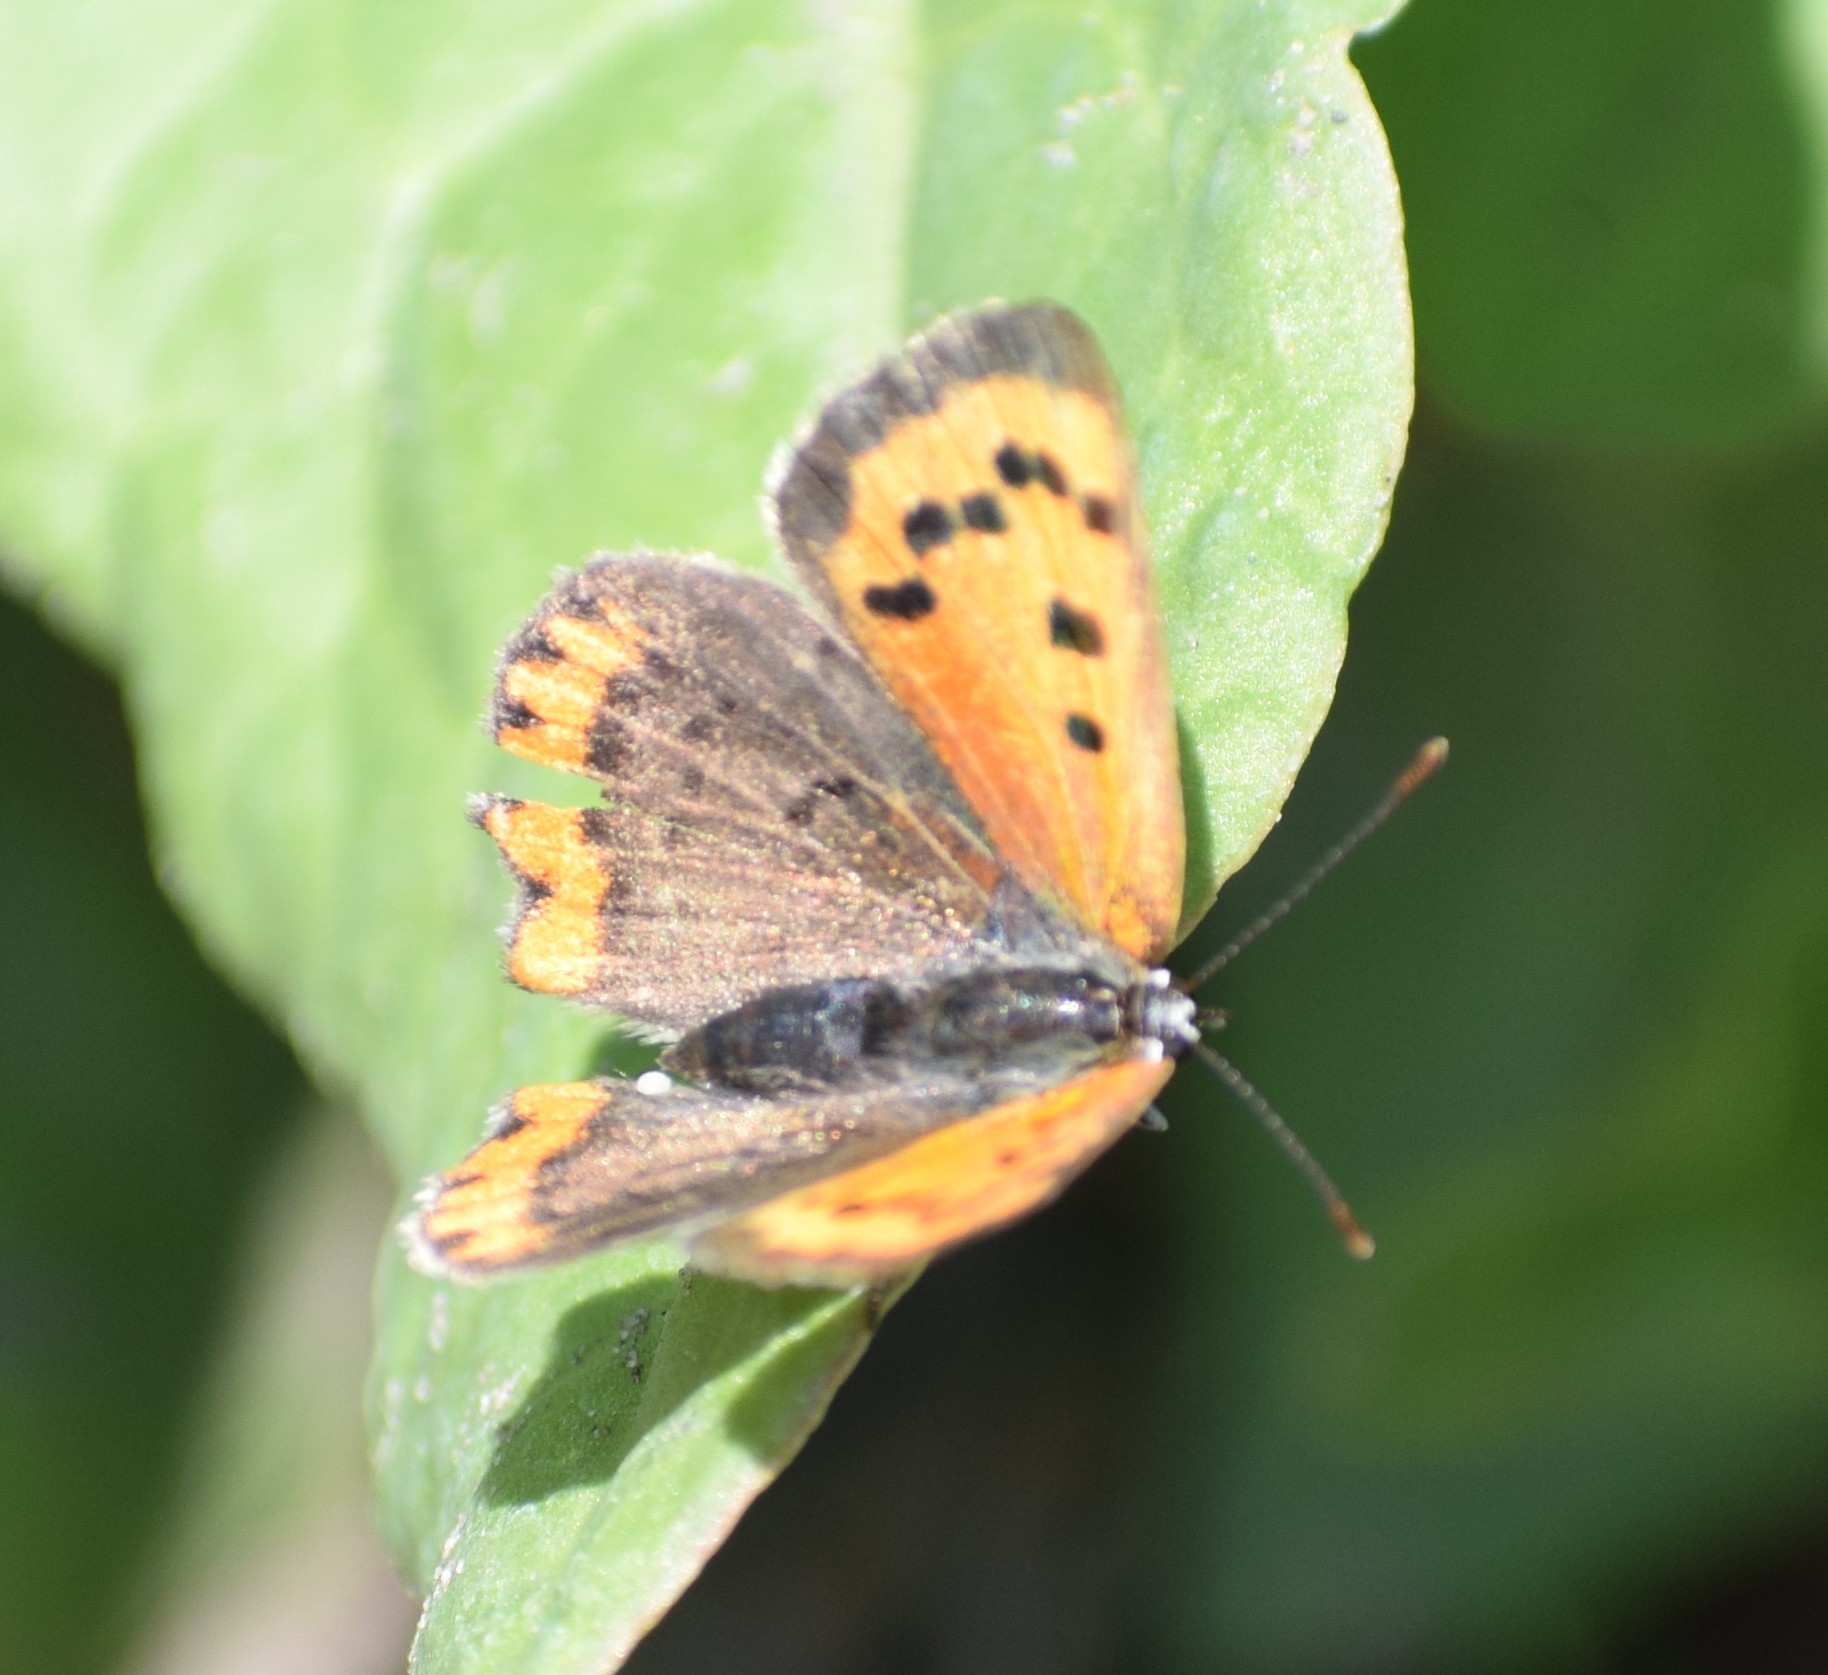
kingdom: Animalia
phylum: Arthropoda
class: Insecta
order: Lepidoptera
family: Lycaenidae
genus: Lycaena
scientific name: Lycaena phlaeas
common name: Small copper
